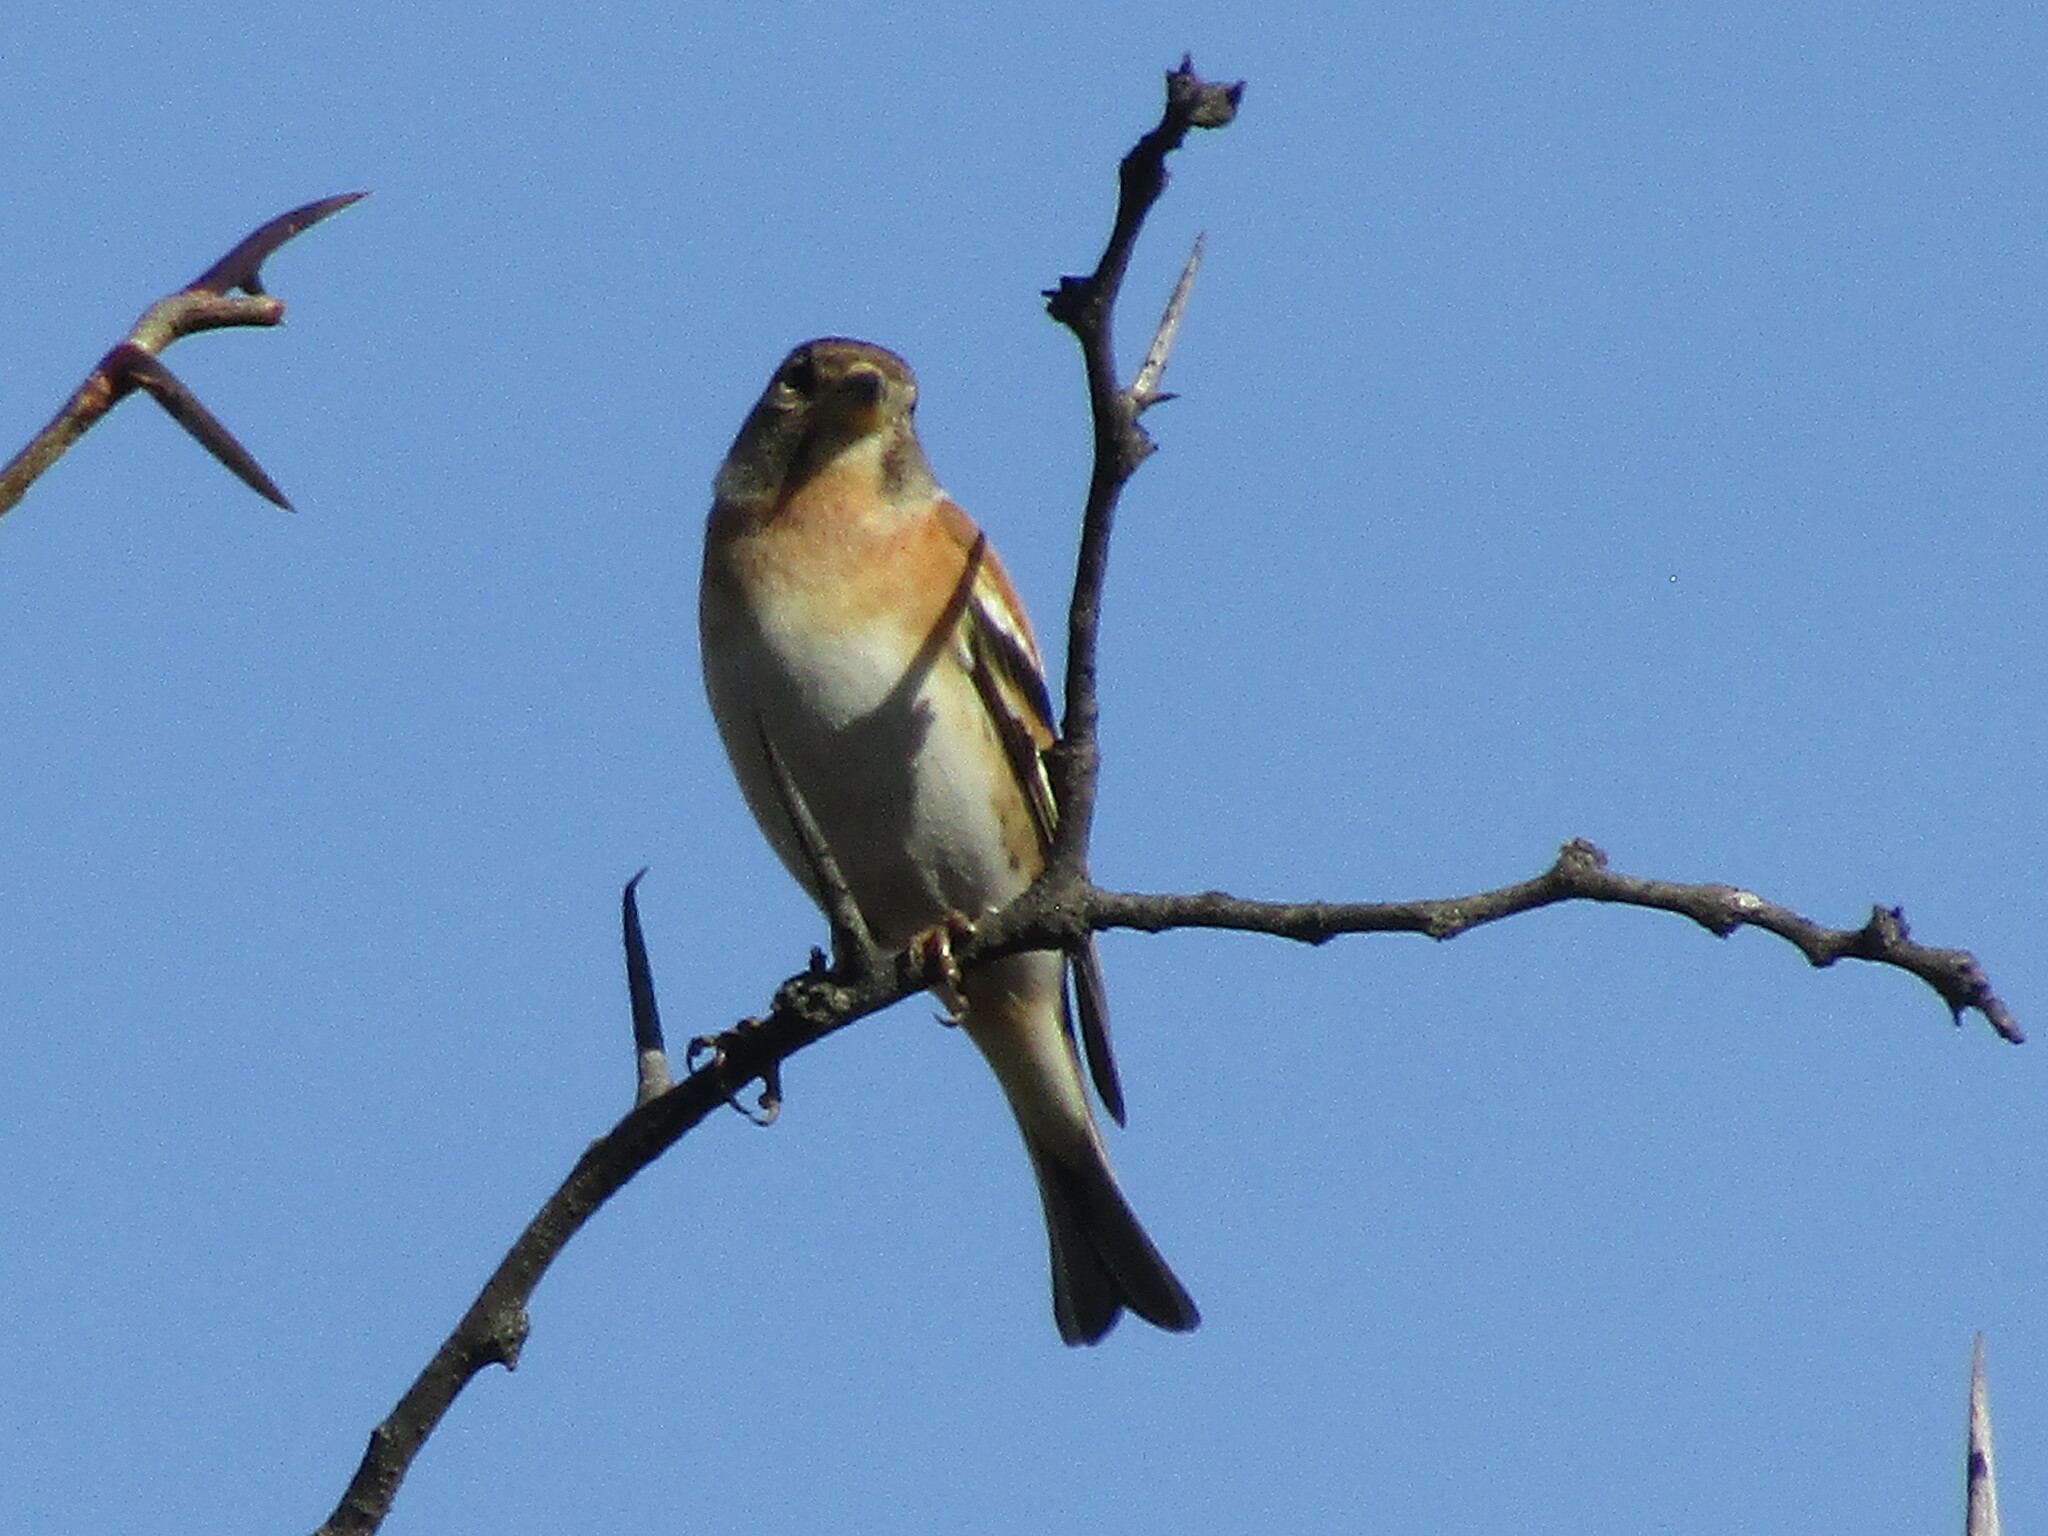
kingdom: Animalia
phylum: Chordata
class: Aves
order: Passeriformes
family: Fringillidae
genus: Fringilla
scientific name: Fringilla montifringilla
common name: Brambling
